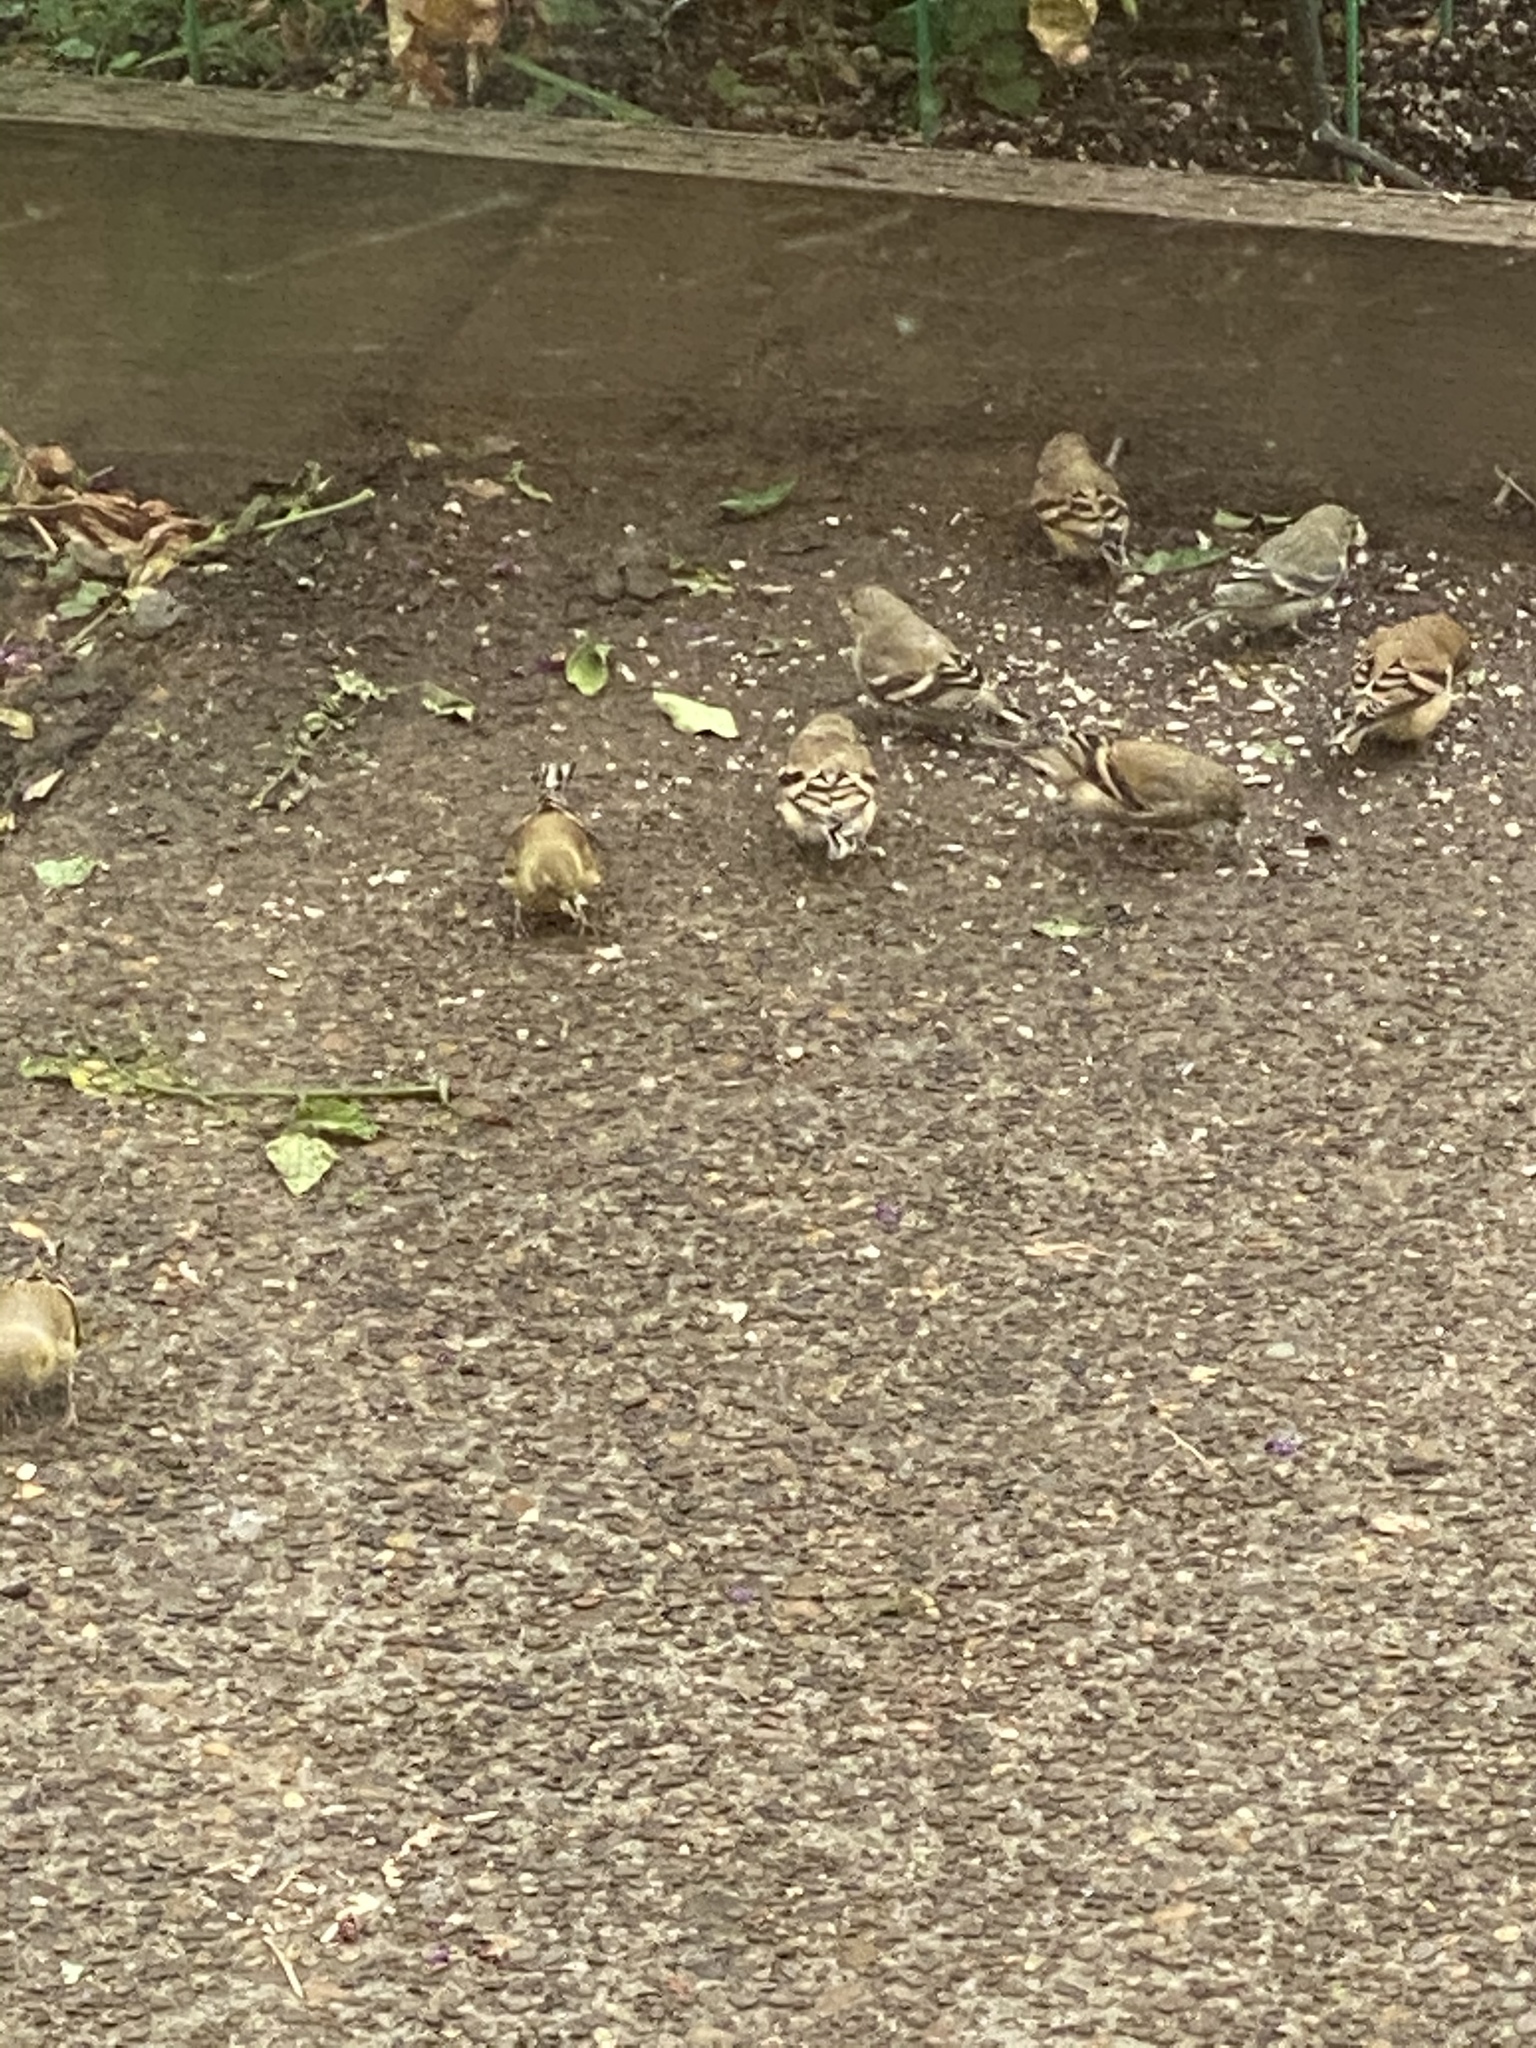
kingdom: Animalia
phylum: Chordata
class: Aves
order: Passeriformes
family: Fringillidae
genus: Spinus
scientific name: Spinus tristis
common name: American goldfinch
